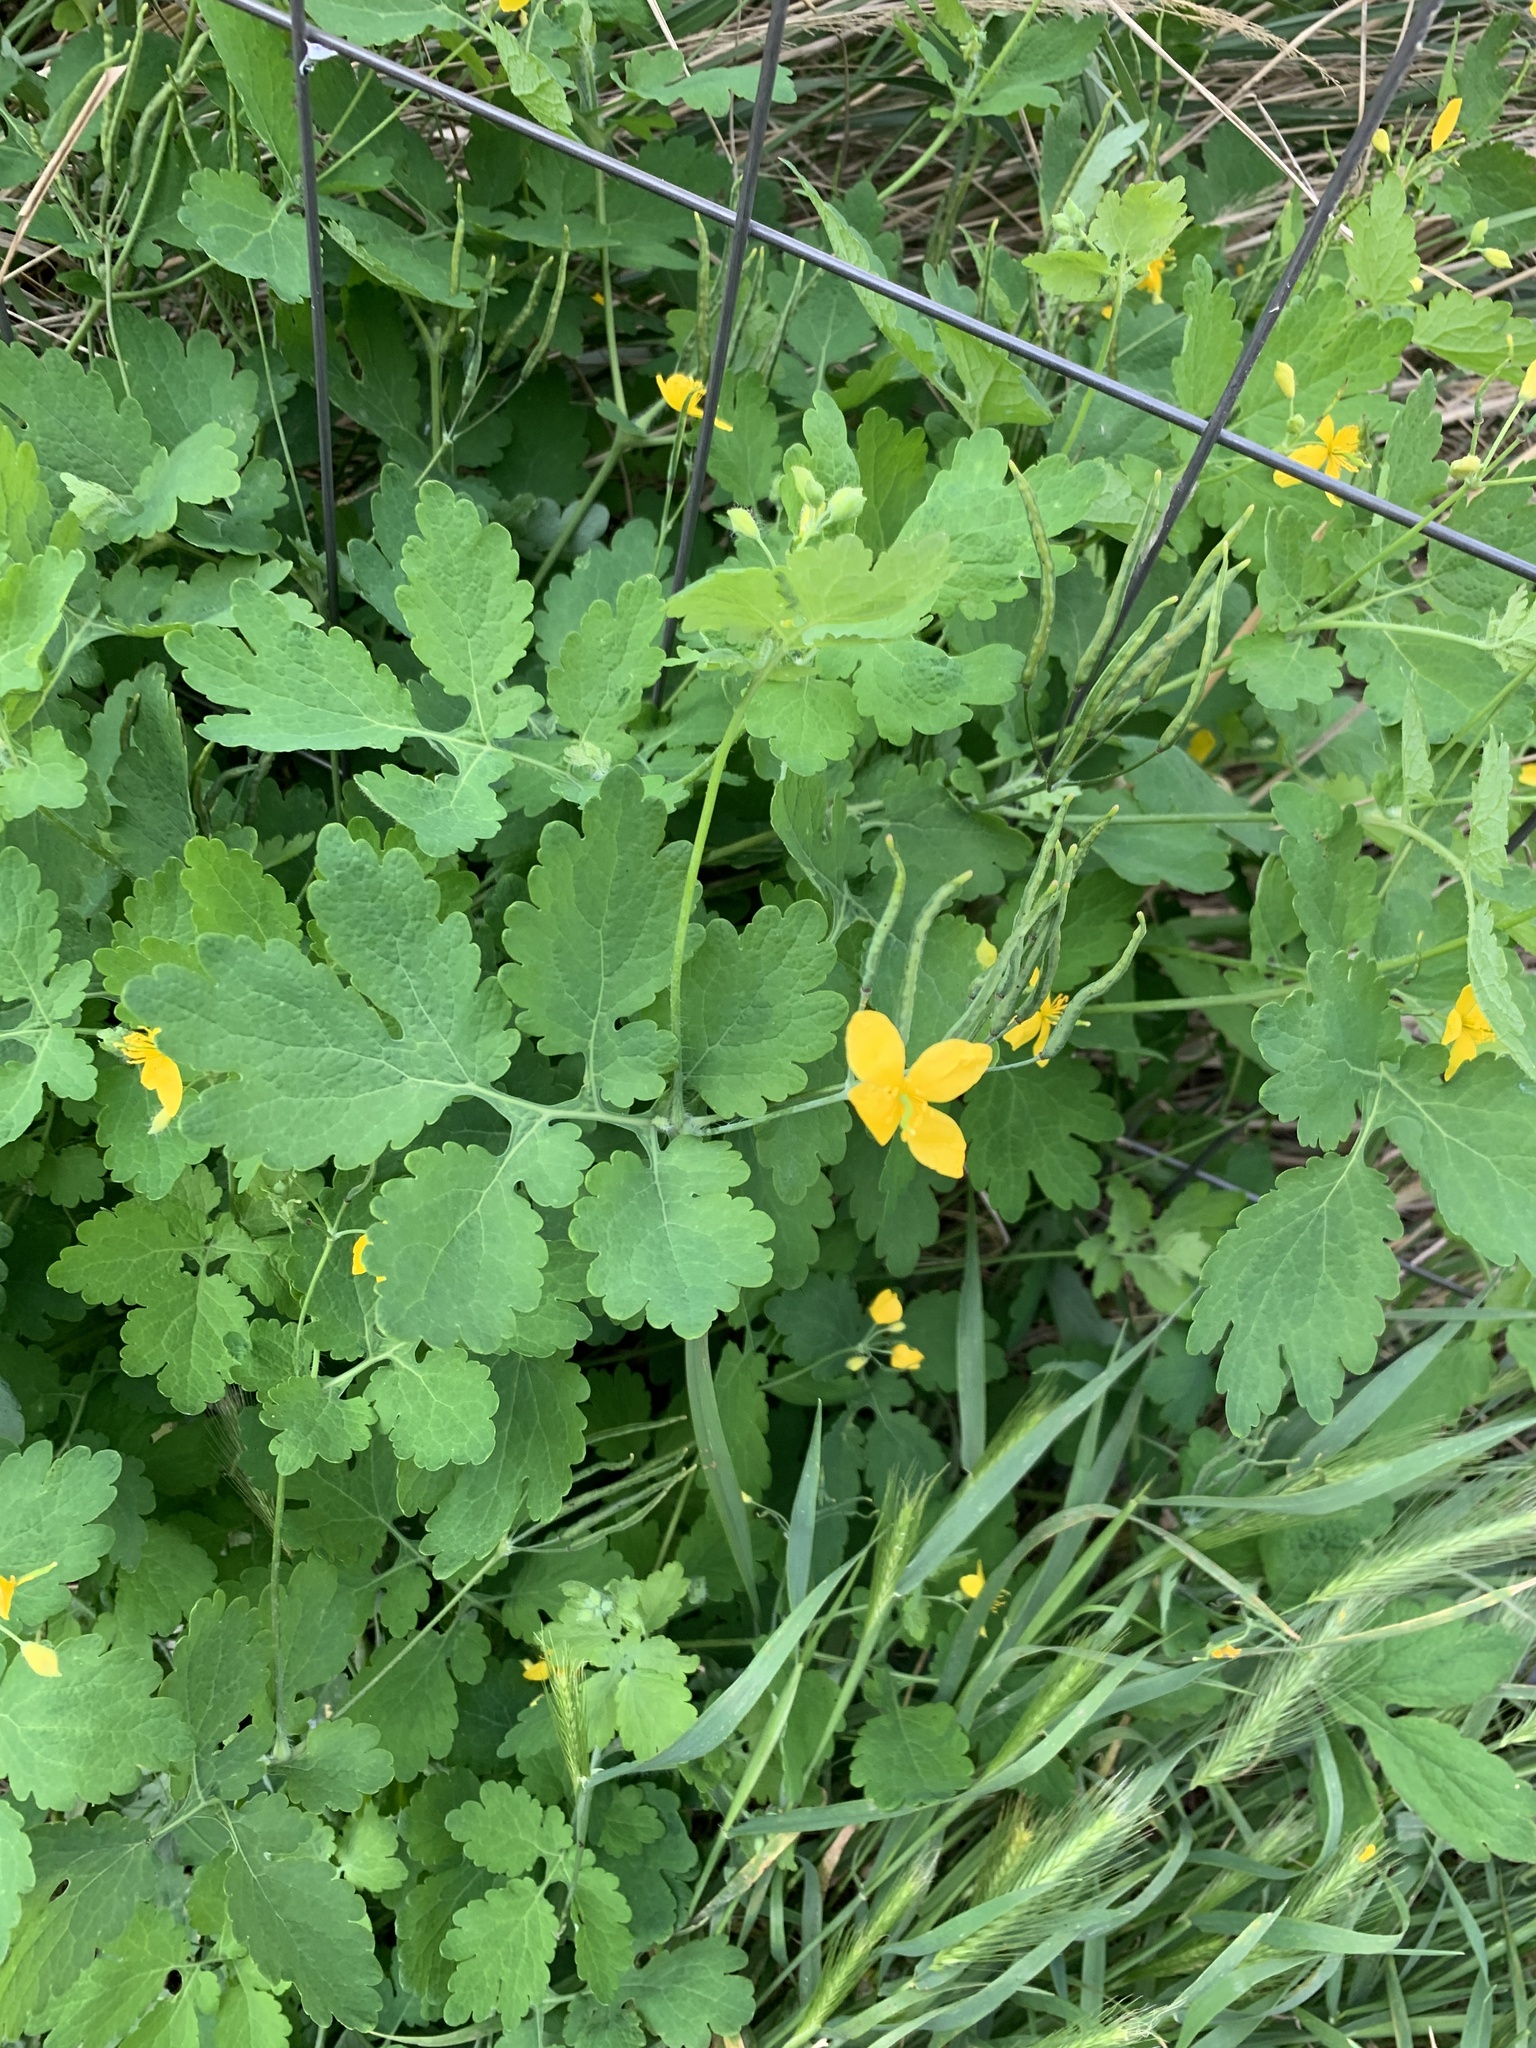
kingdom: Plantae
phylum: Tracheophyta
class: Magnoliopsida
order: Ranunculales
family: Papaveraceae
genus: Chelidonium
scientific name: Chelidonium majus
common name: Greater celandine
